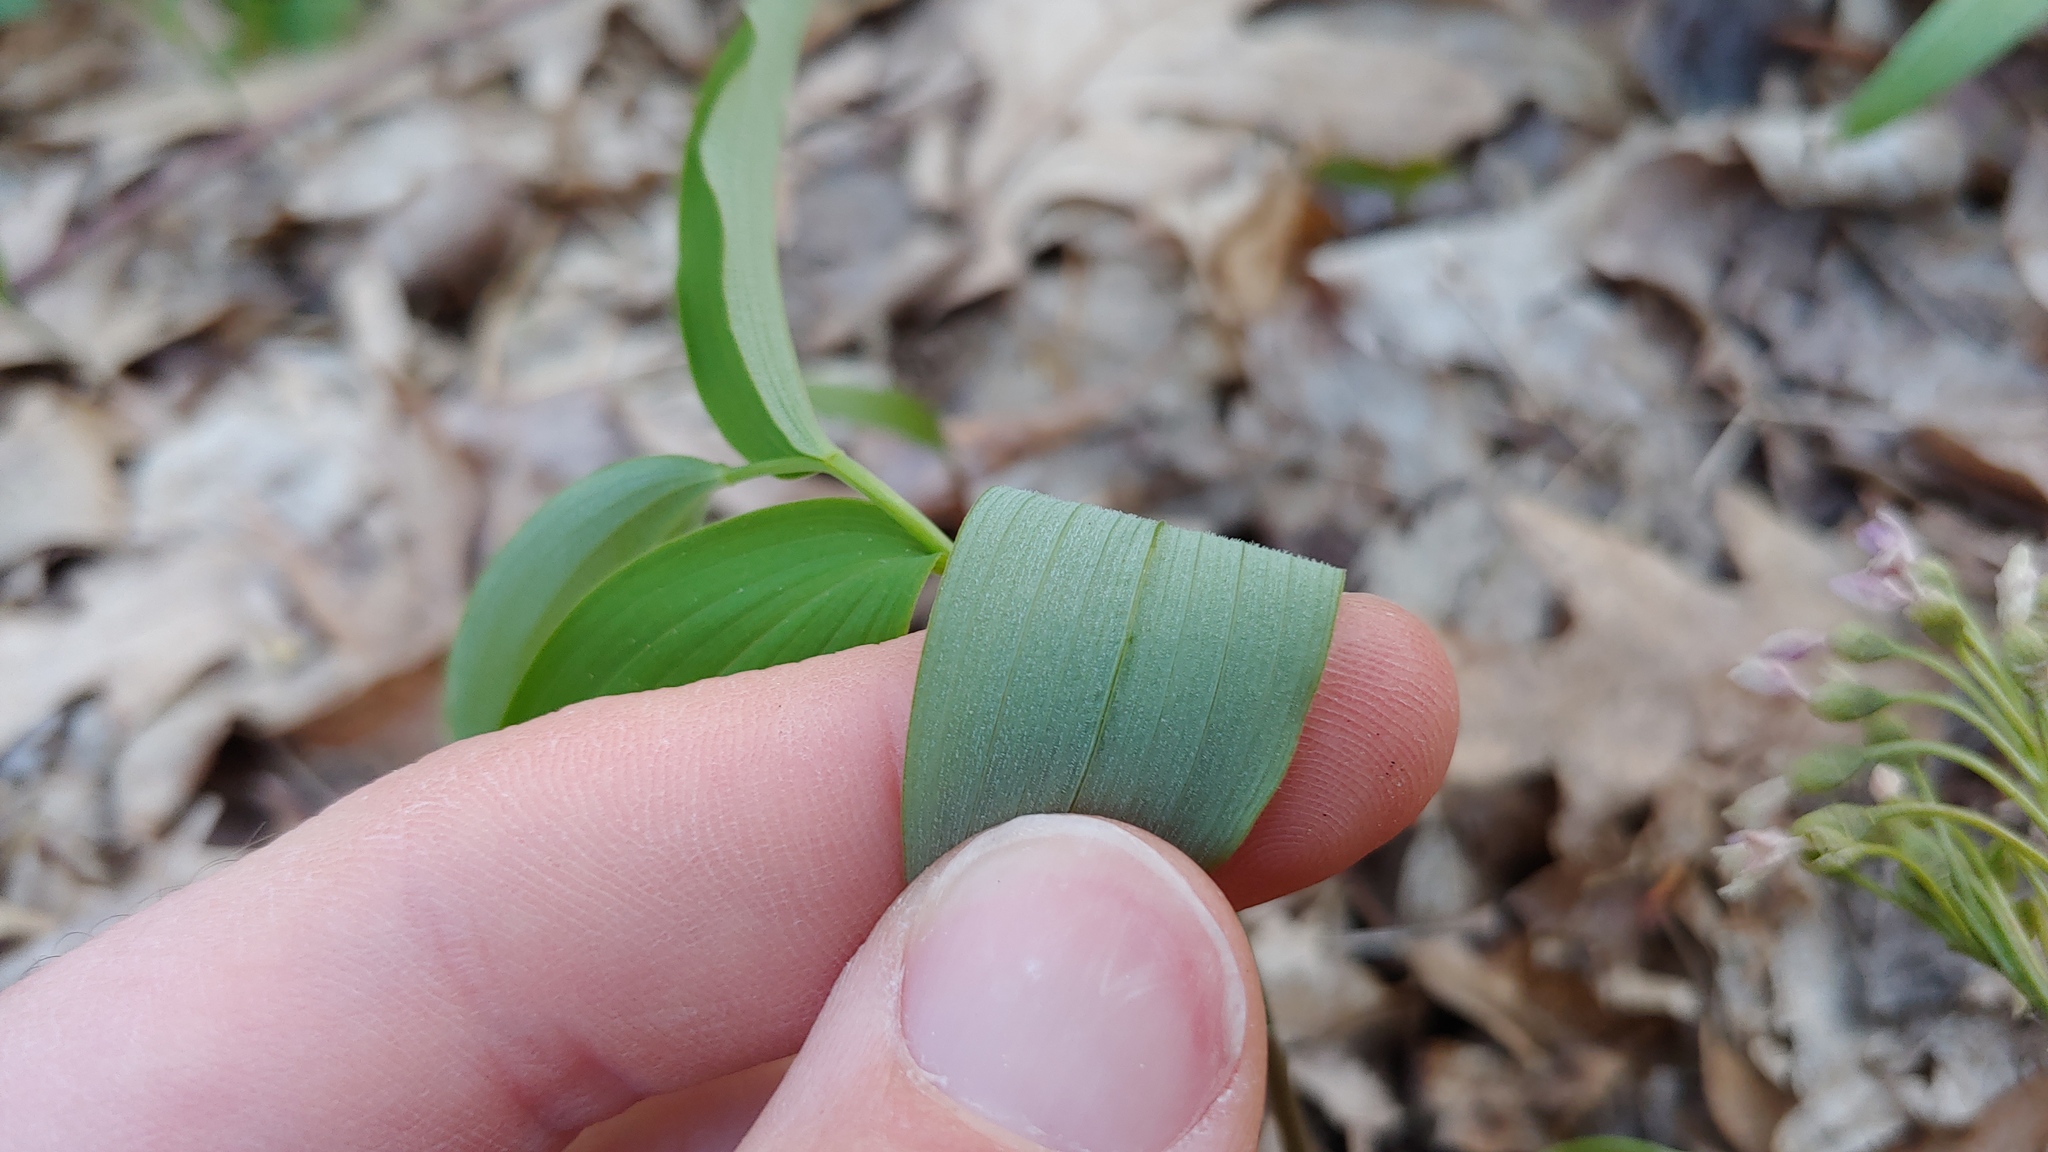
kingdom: Plantae
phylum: Tracheophyta
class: Liliopsida
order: Asparagales
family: Asparagaceae
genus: Polygonatum
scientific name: Polygonatum pubescens
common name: Downy solomon's seal
